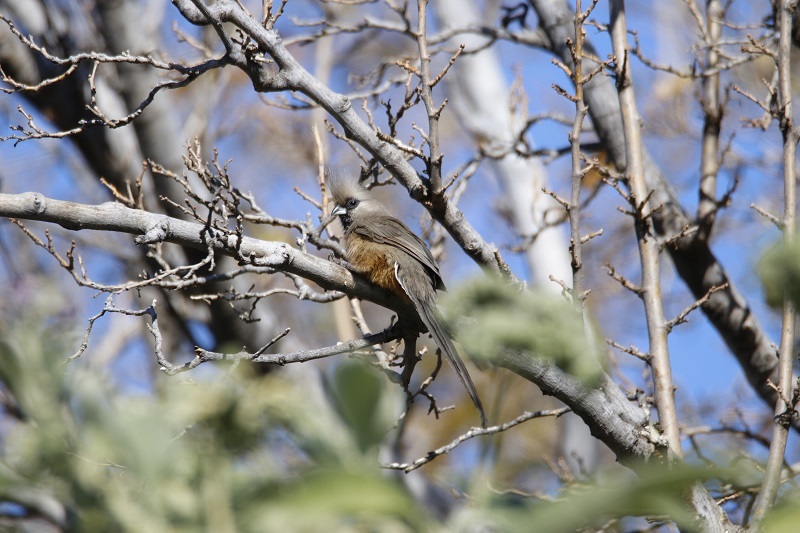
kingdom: Animalia
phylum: Chordata
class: Aves
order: Coliiformes
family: Coliidae
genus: Colius
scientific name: Colius striatus
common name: Speckled mousebird
